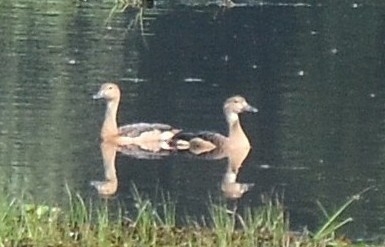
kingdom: Animalia
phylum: Chordata
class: Aves
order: Anseriformes
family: Anatidae
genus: Dendrocygna
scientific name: Dendrocygna javanica
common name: Lesser whistling-duck
